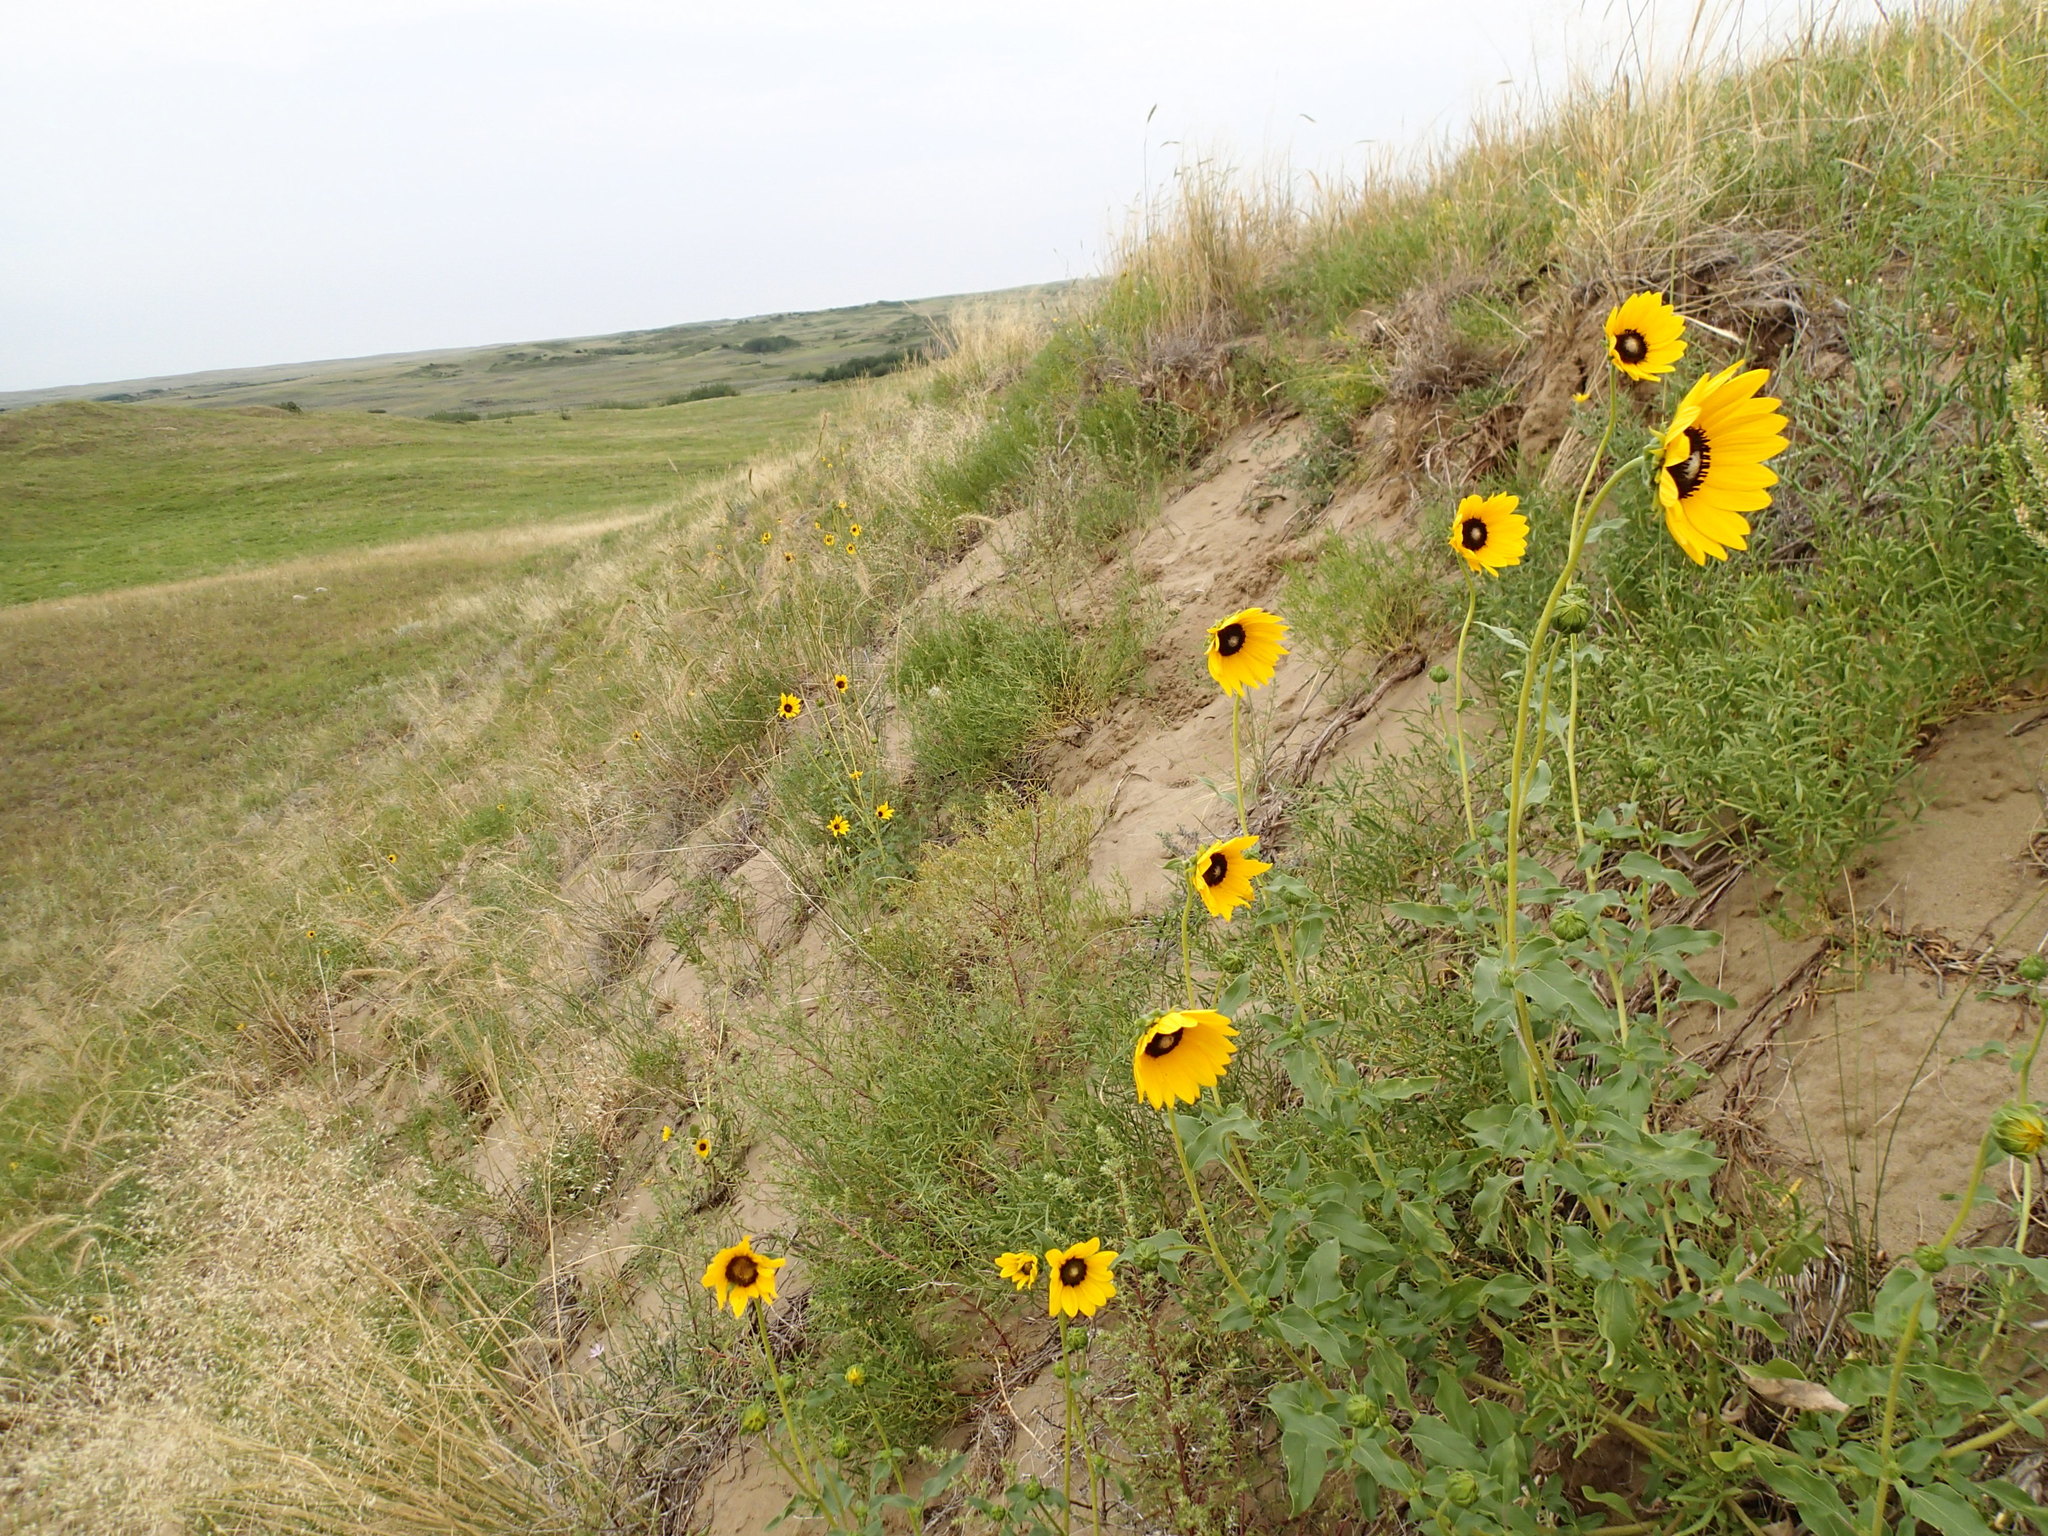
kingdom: Plantae
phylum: Tracheophyta
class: Magnoliopsida
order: Asterales
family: Asteraceae
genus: Helianthus
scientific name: Helianthus petiolaris
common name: Lesser sunflower
